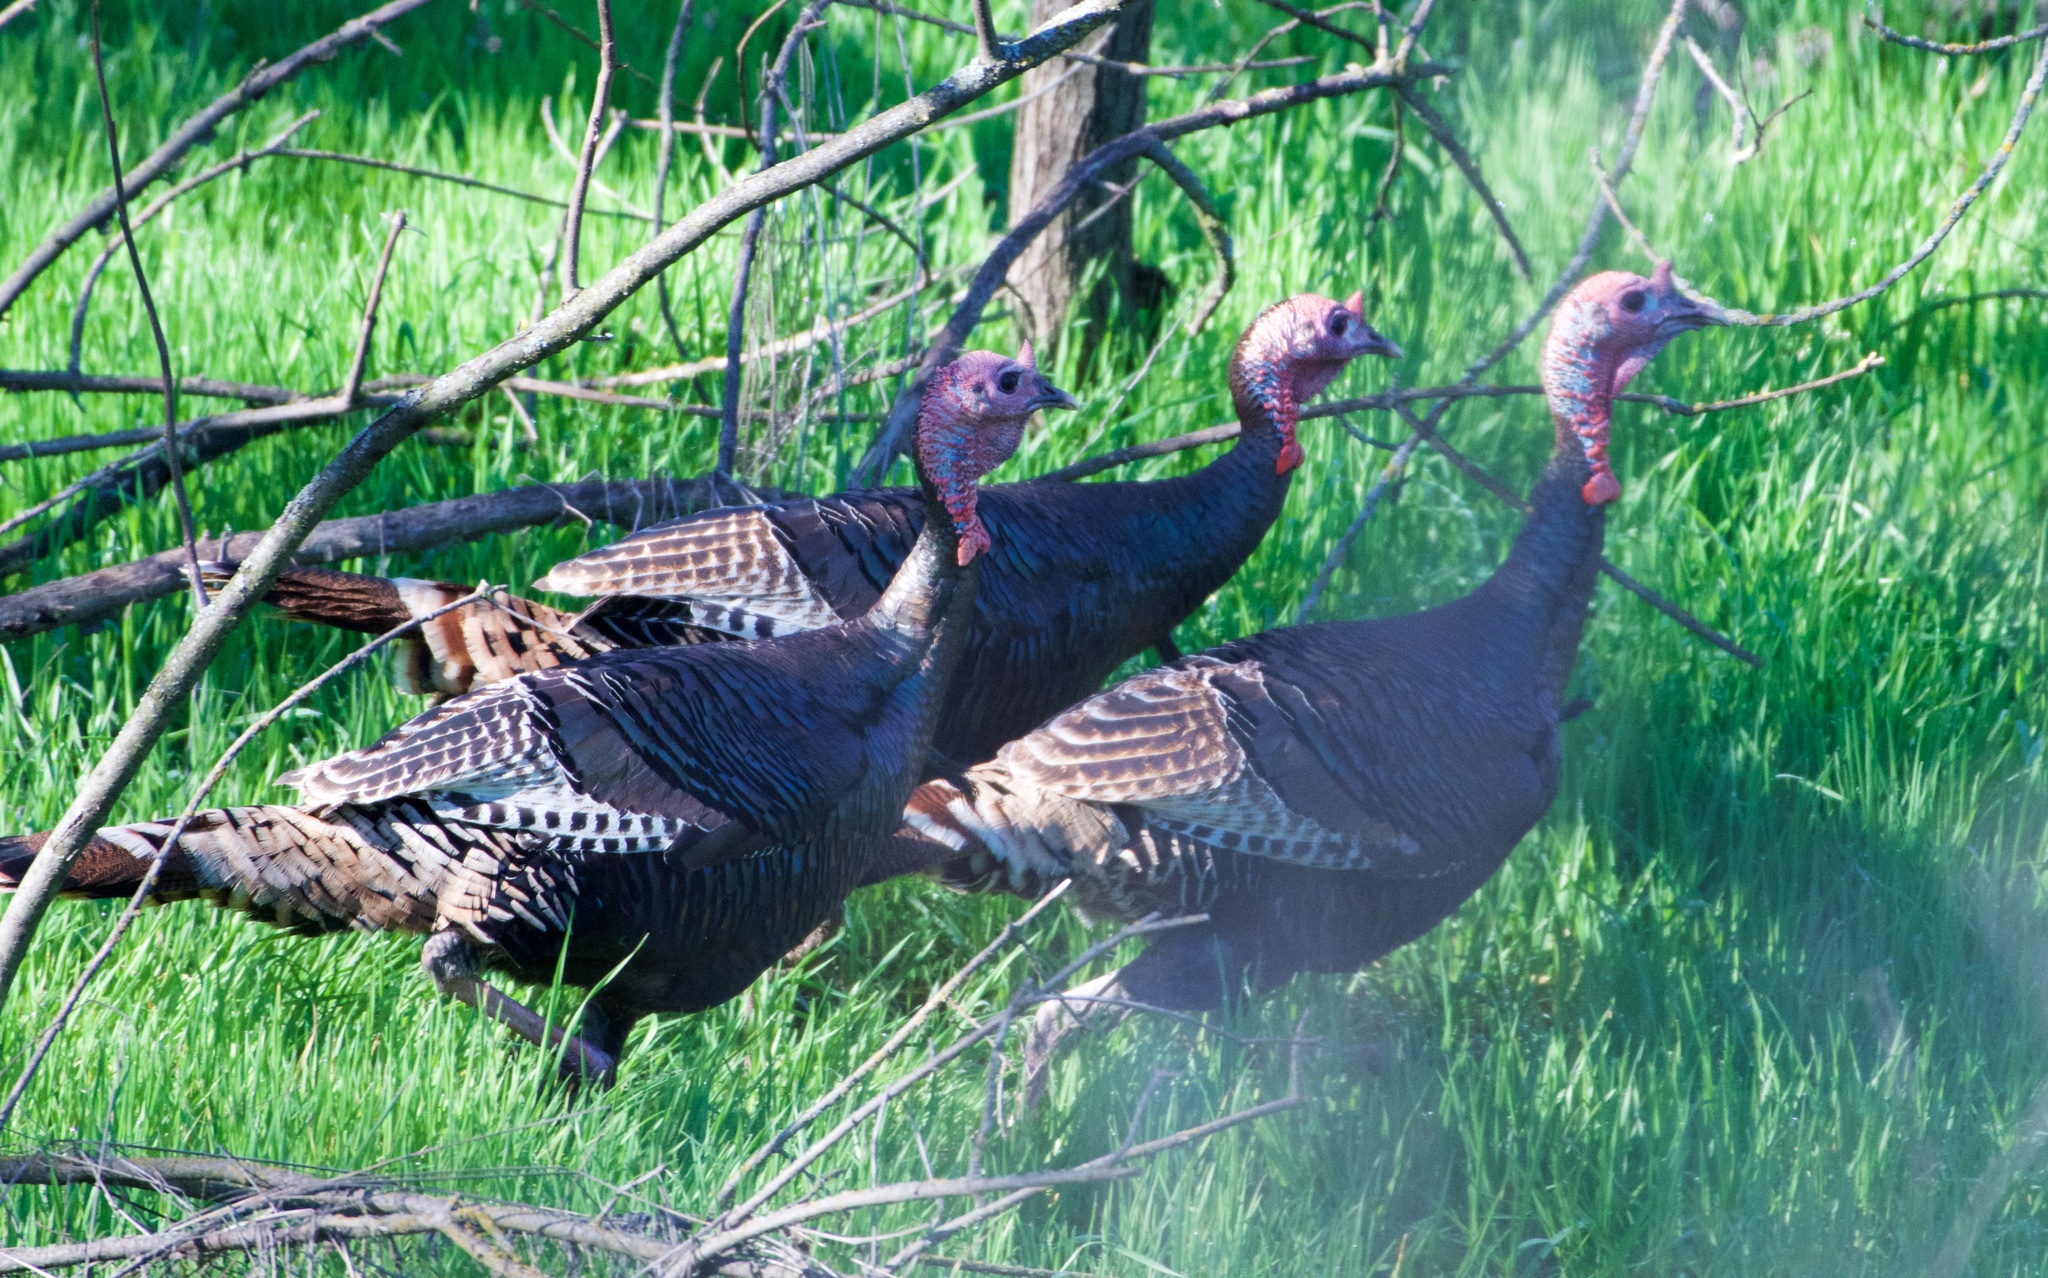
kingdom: Animalia
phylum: Chordata
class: Aves
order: Galliformes
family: Phasianidae
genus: Meleagris
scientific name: Meleagris gallopavo
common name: Wild turkey
